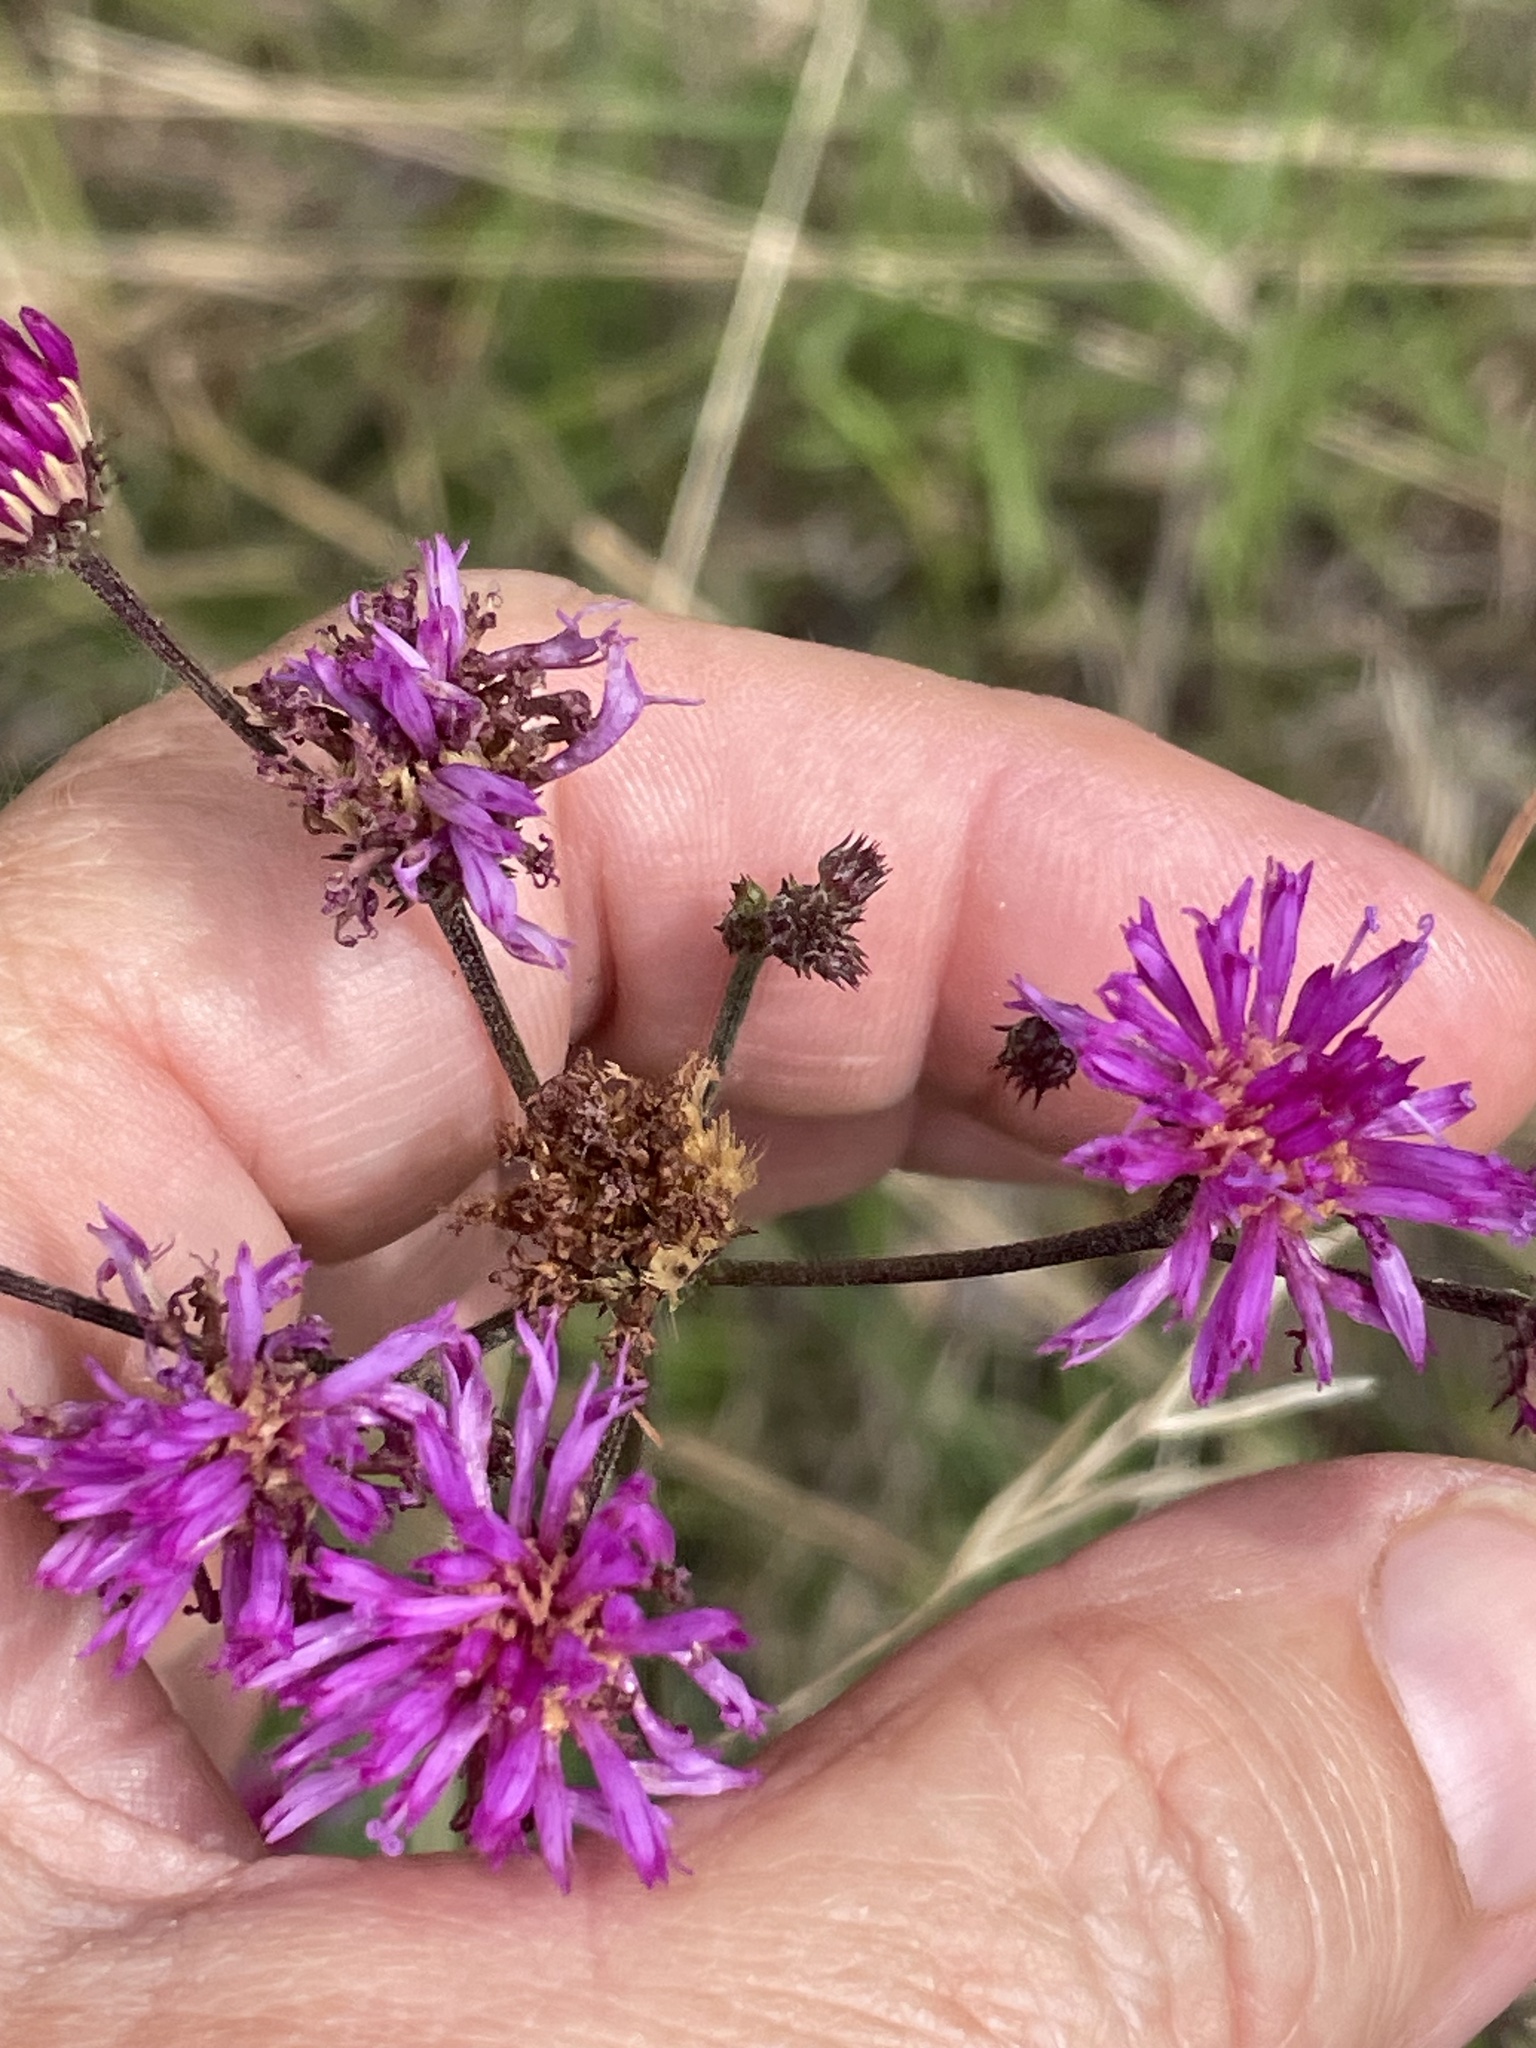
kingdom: Plantae
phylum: Tracheophyta
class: Magnoliopsida
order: Asterales
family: Asteraceae
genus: Vernonia
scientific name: Vernonia acaulis
